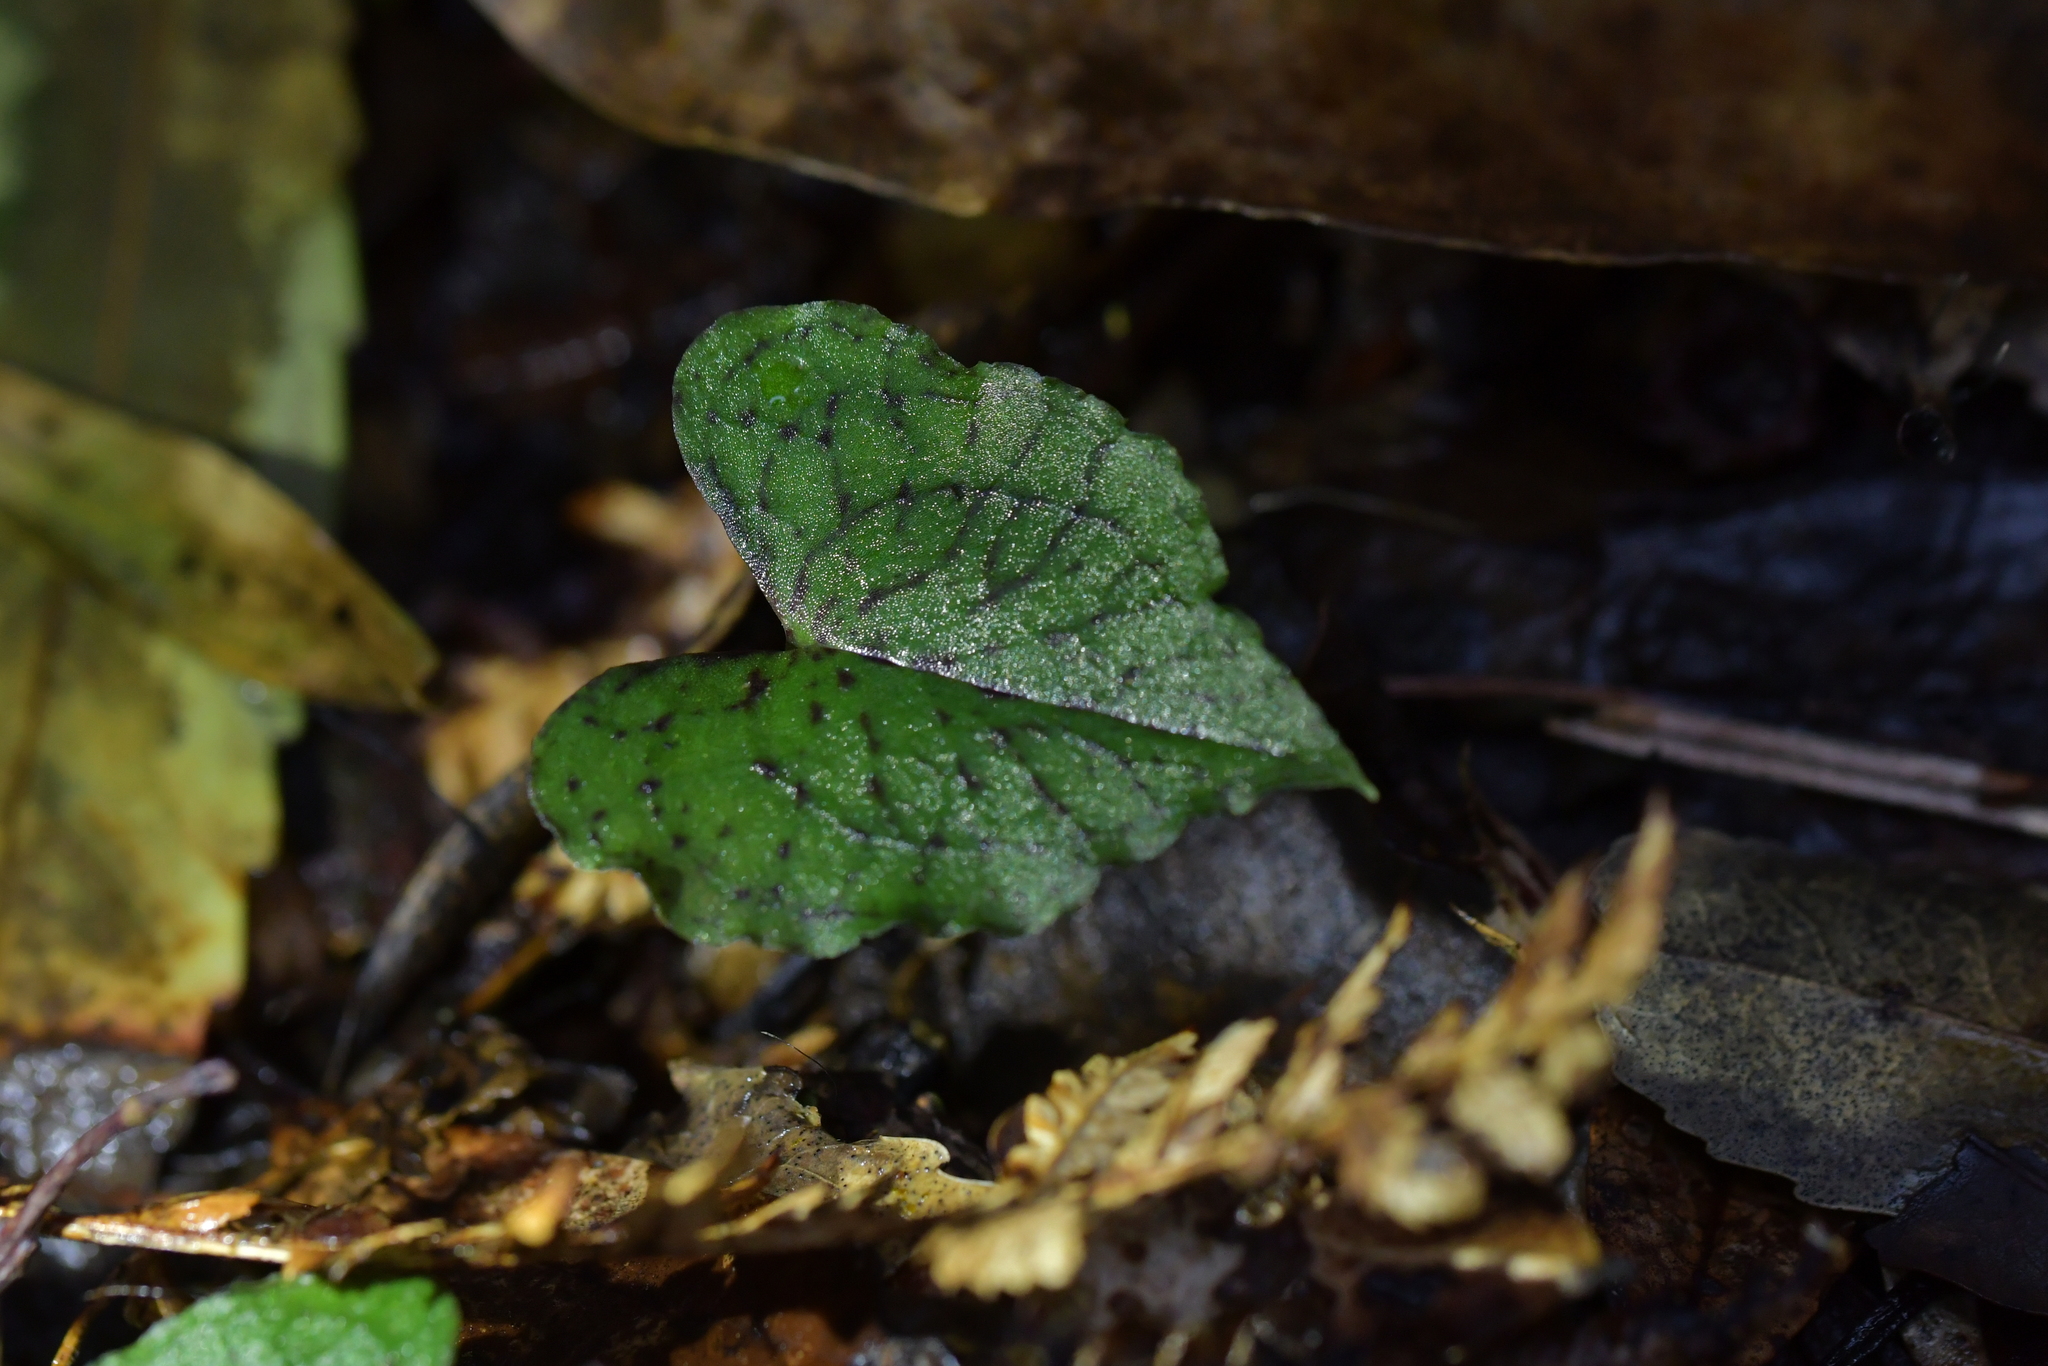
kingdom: Plantae
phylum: Tracheophyta
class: Liliopsida
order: Asparagales
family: Orchidaceae
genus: Corybas
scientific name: Corybas acuminatus
